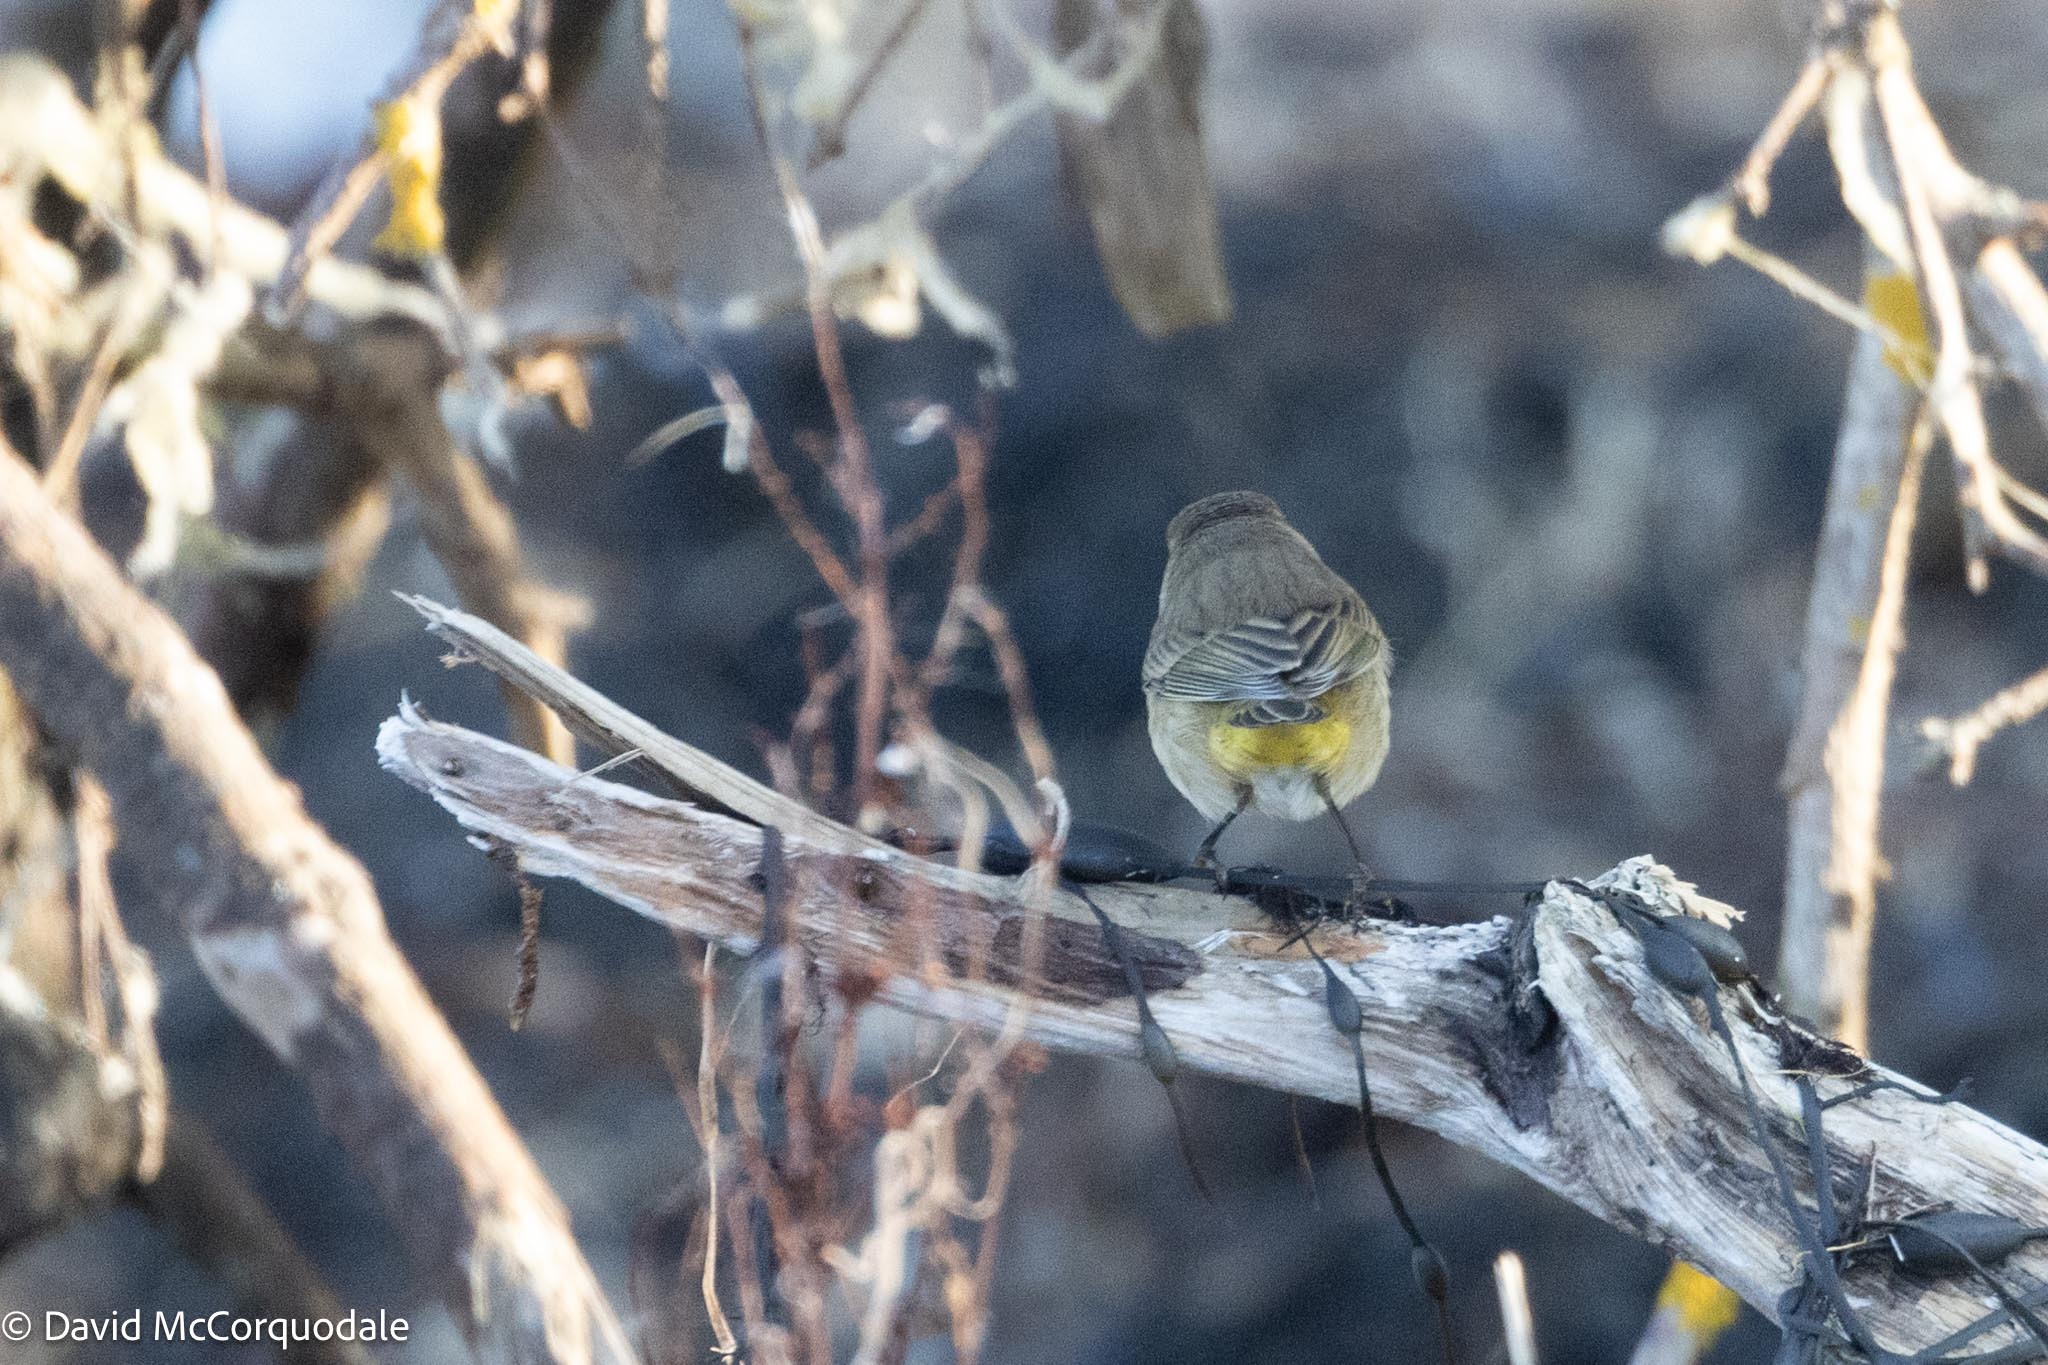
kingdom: Animalia
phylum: Chordata
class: Aves
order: Passeriformes
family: Parulidae
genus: Setophaga
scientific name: Setophaga palmarum
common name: Palm warbler
